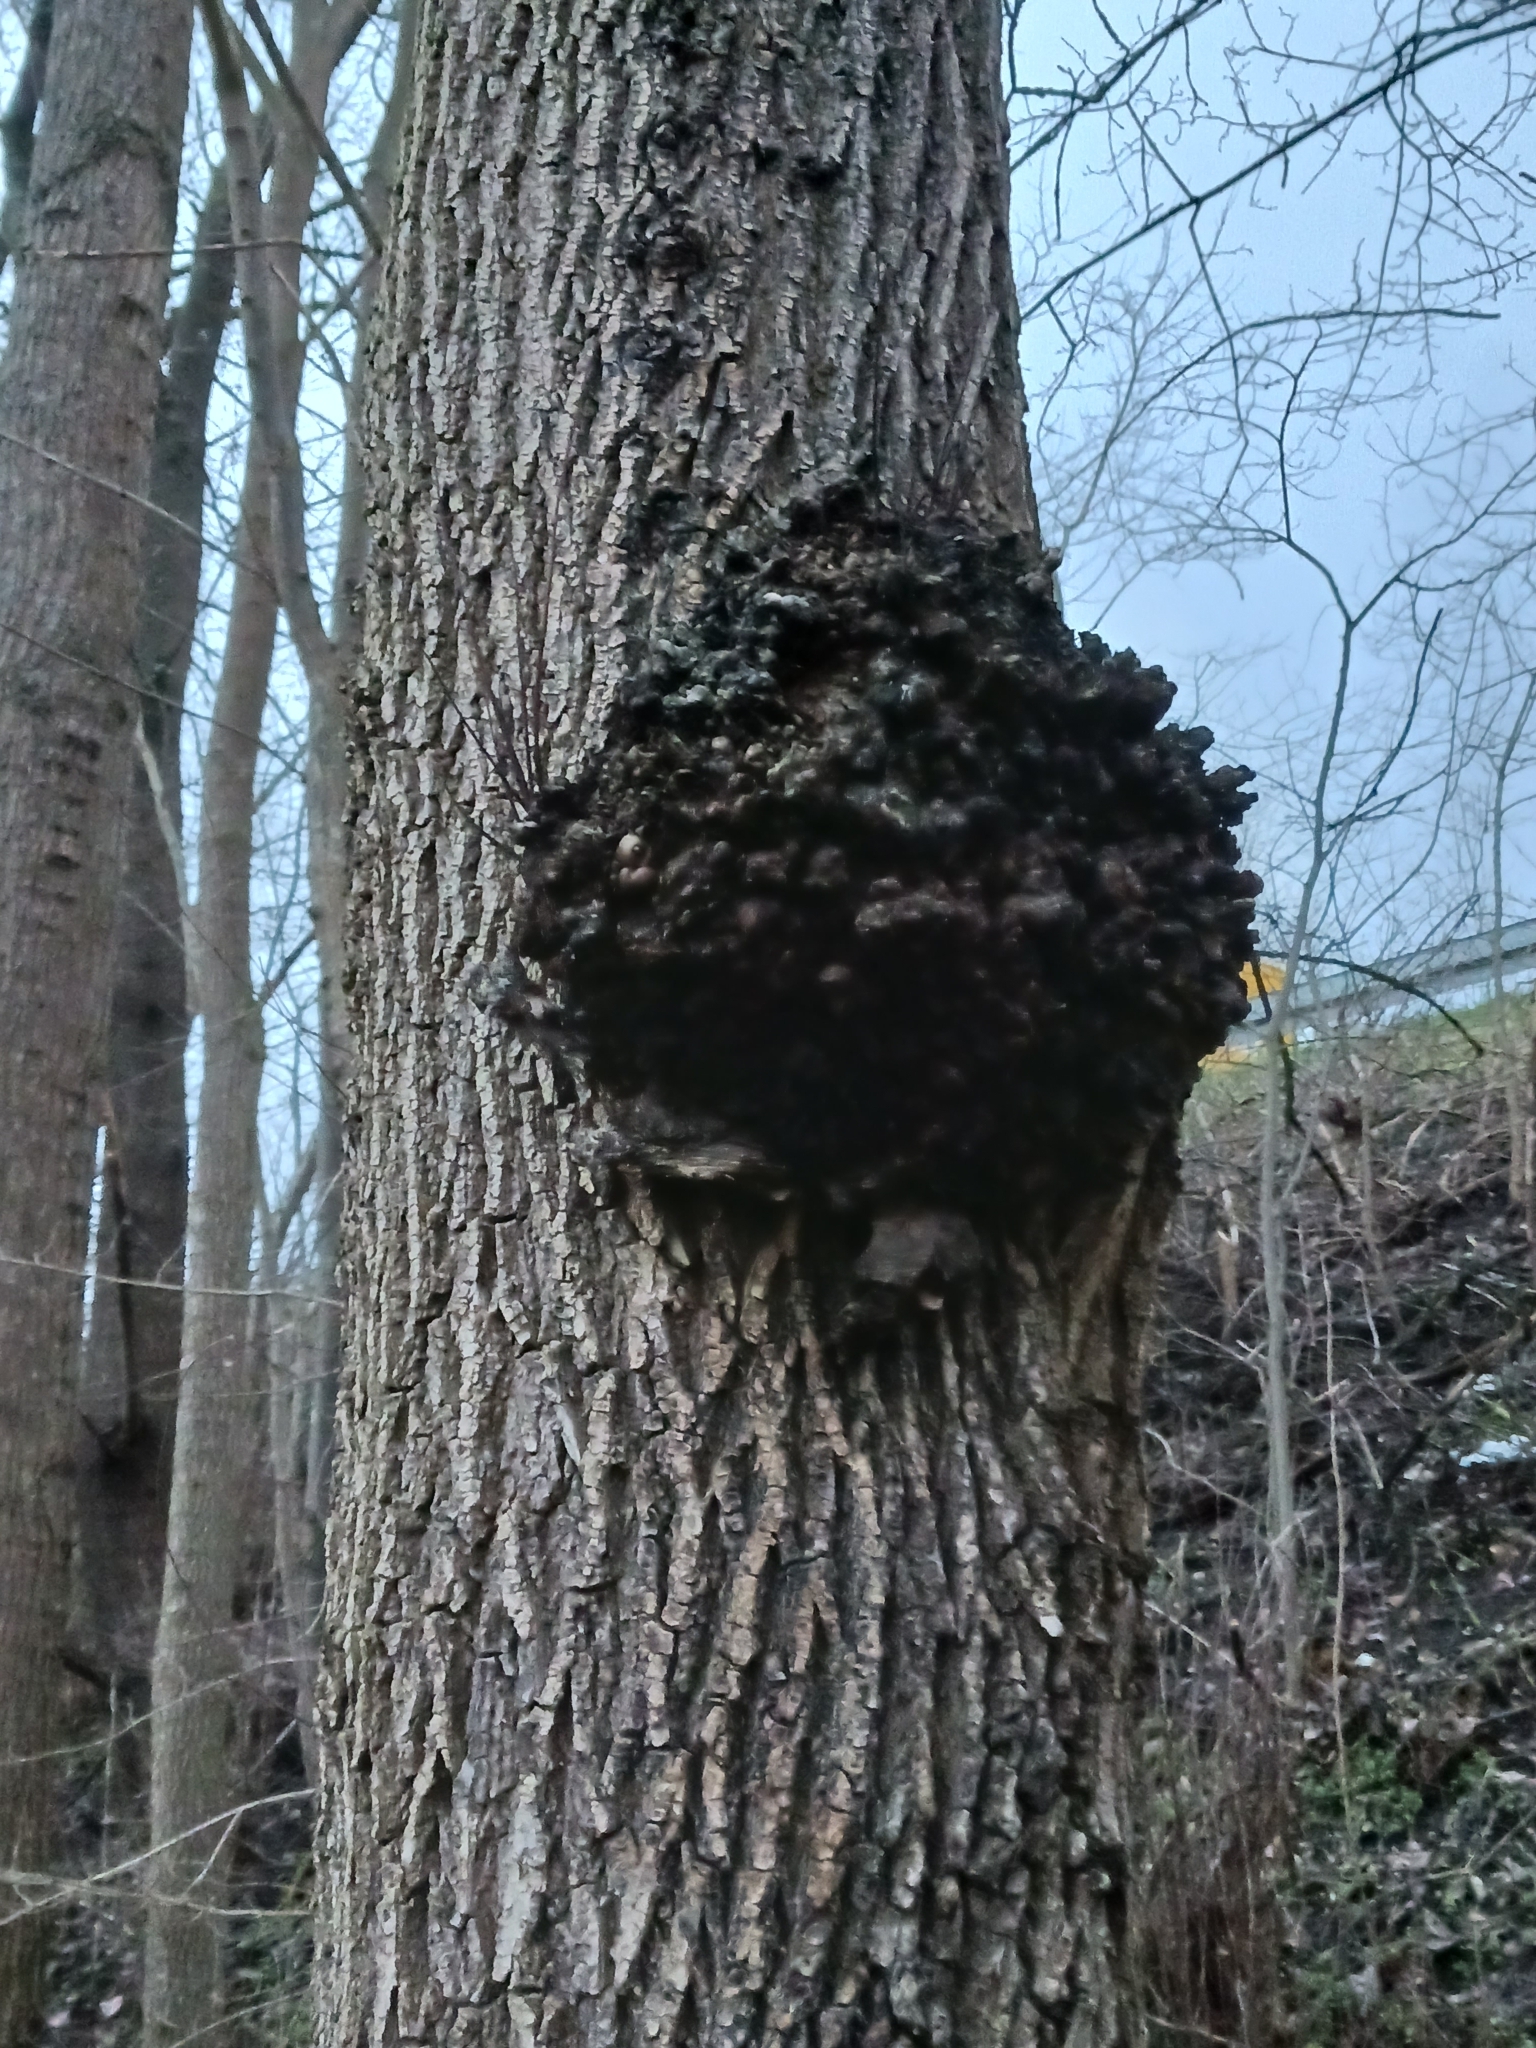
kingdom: Bacteria
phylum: Proteobacteria
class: Alphaproteobacteria
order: Rhizobiales
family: Rhizobiaceae
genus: Rhizobium
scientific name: Rhizobium Agrobacterium radiobacter
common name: Bacterial crown gall
